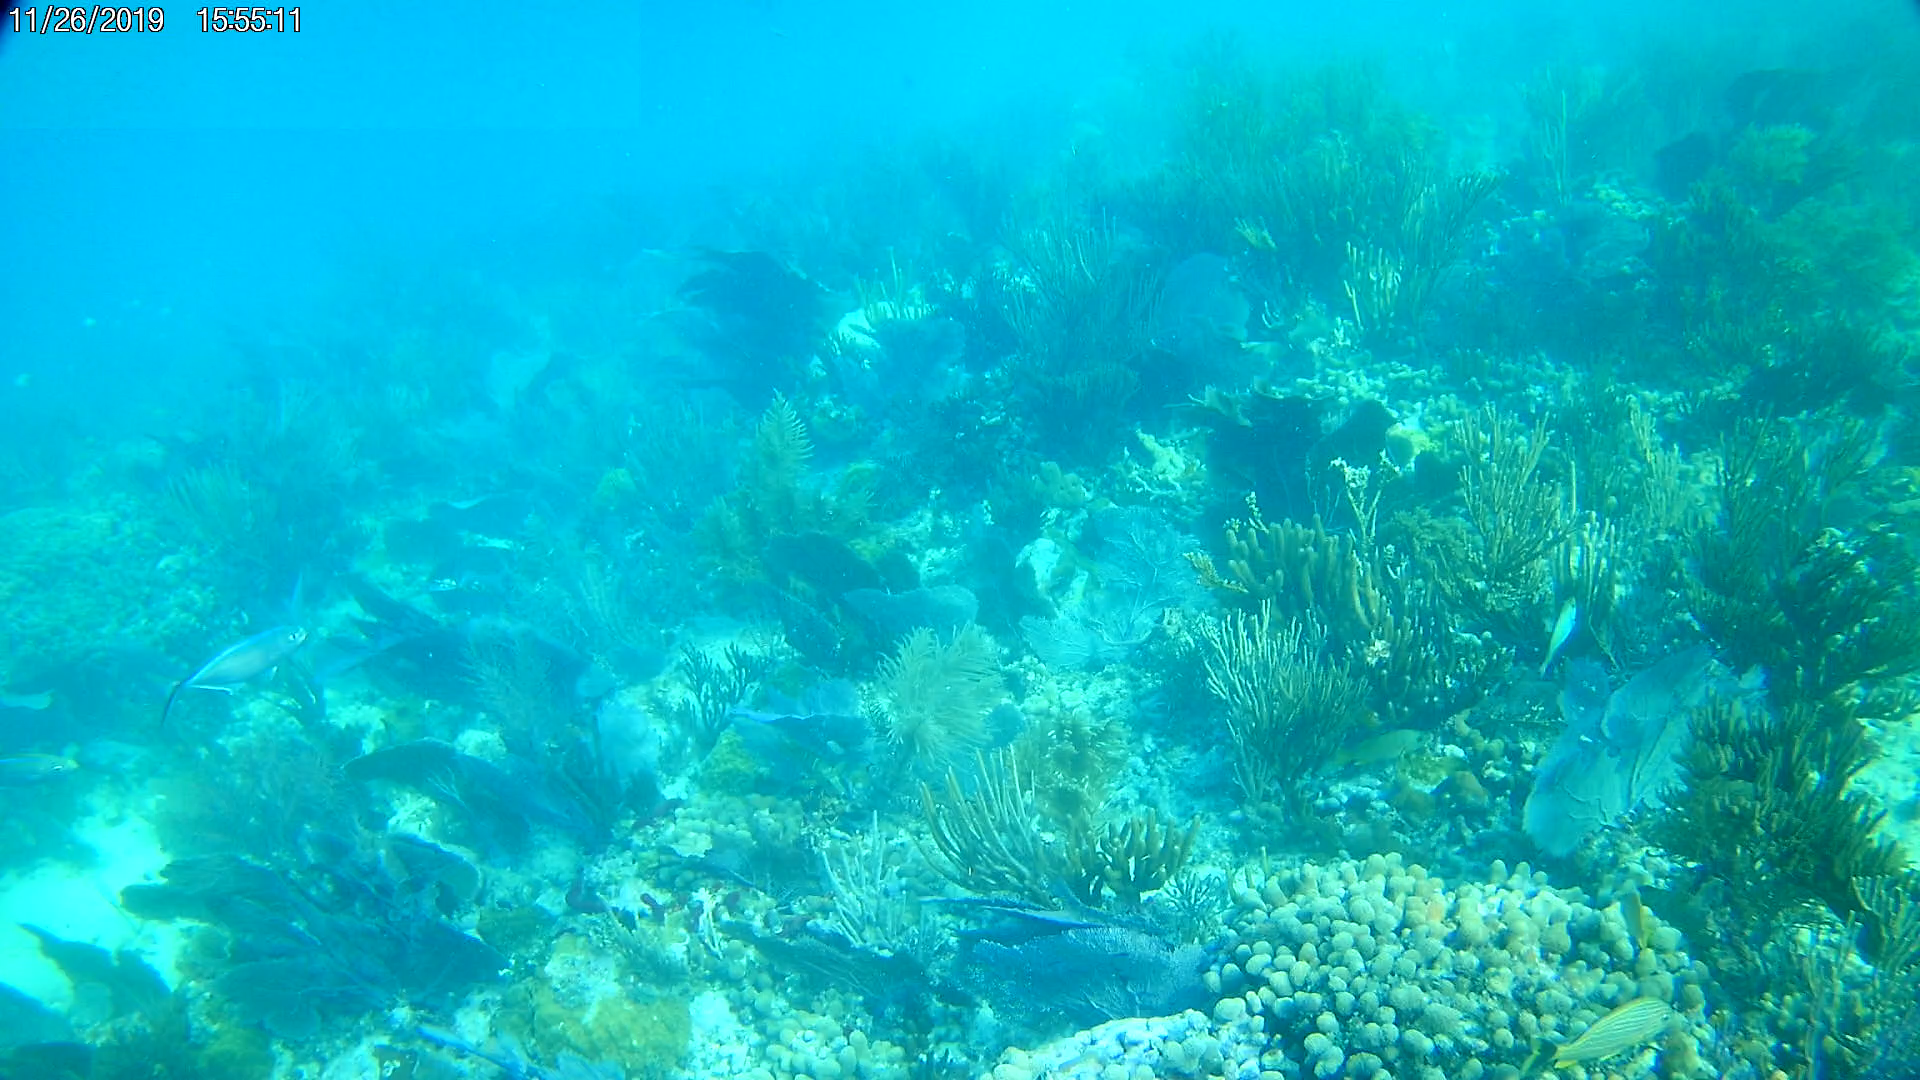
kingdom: Animalia
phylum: Chordata
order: Perciformes
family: Haemulidae
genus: Haemulon
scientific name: Haemulon sciurus
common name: Bluestriped grunt
